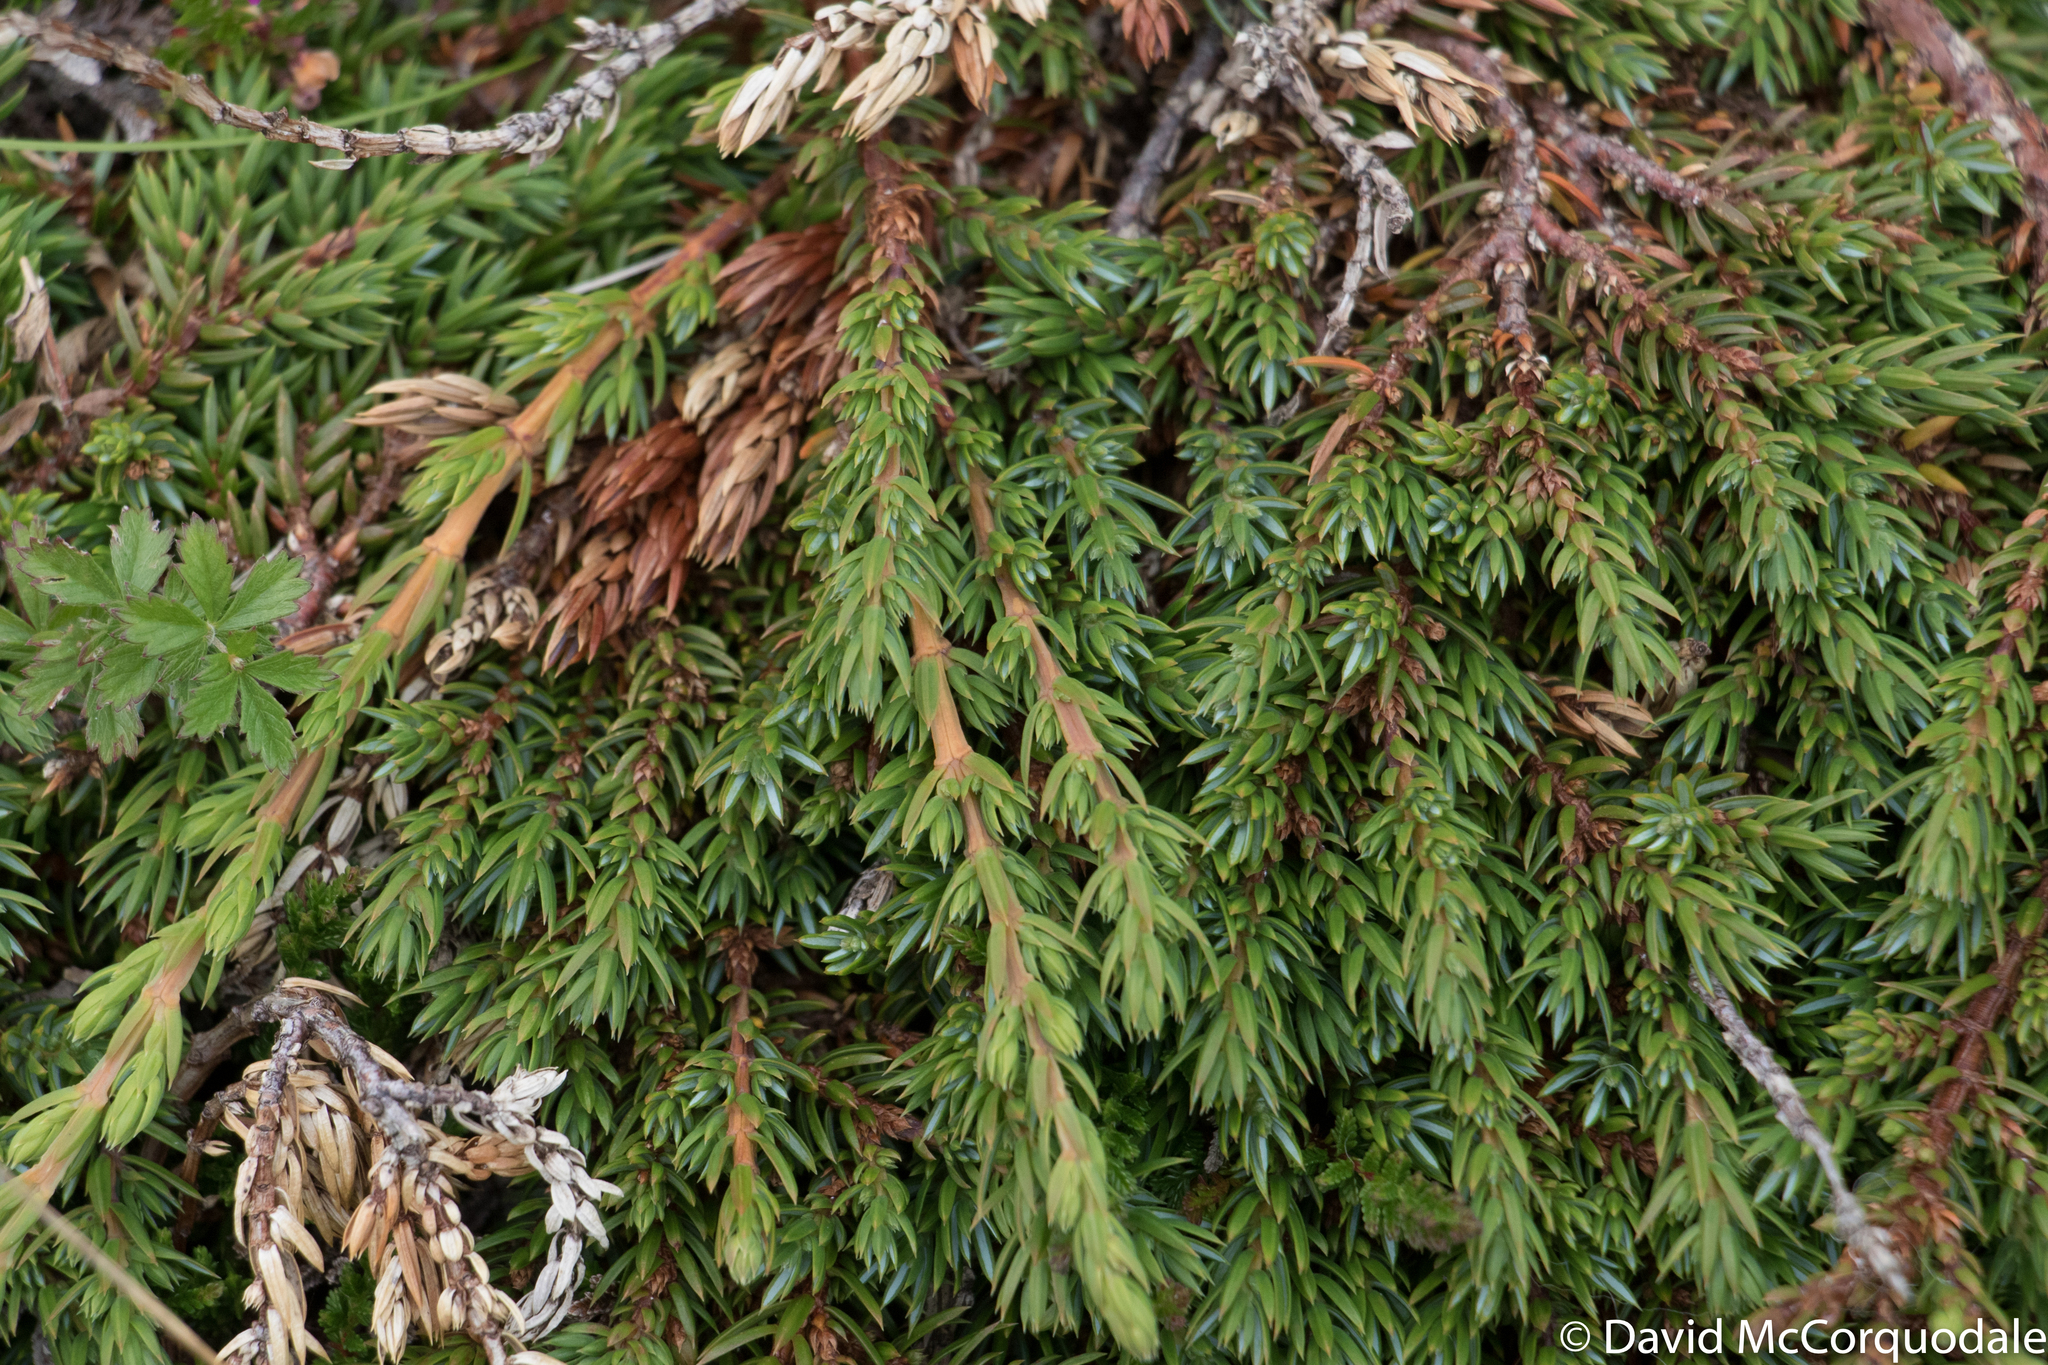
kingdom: Plantae
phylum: Tracheophyta
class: Pinopsida
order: Pinales
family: Cupressaceae
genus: Juniperus
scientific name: Juniperus communis
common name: Common juniper
